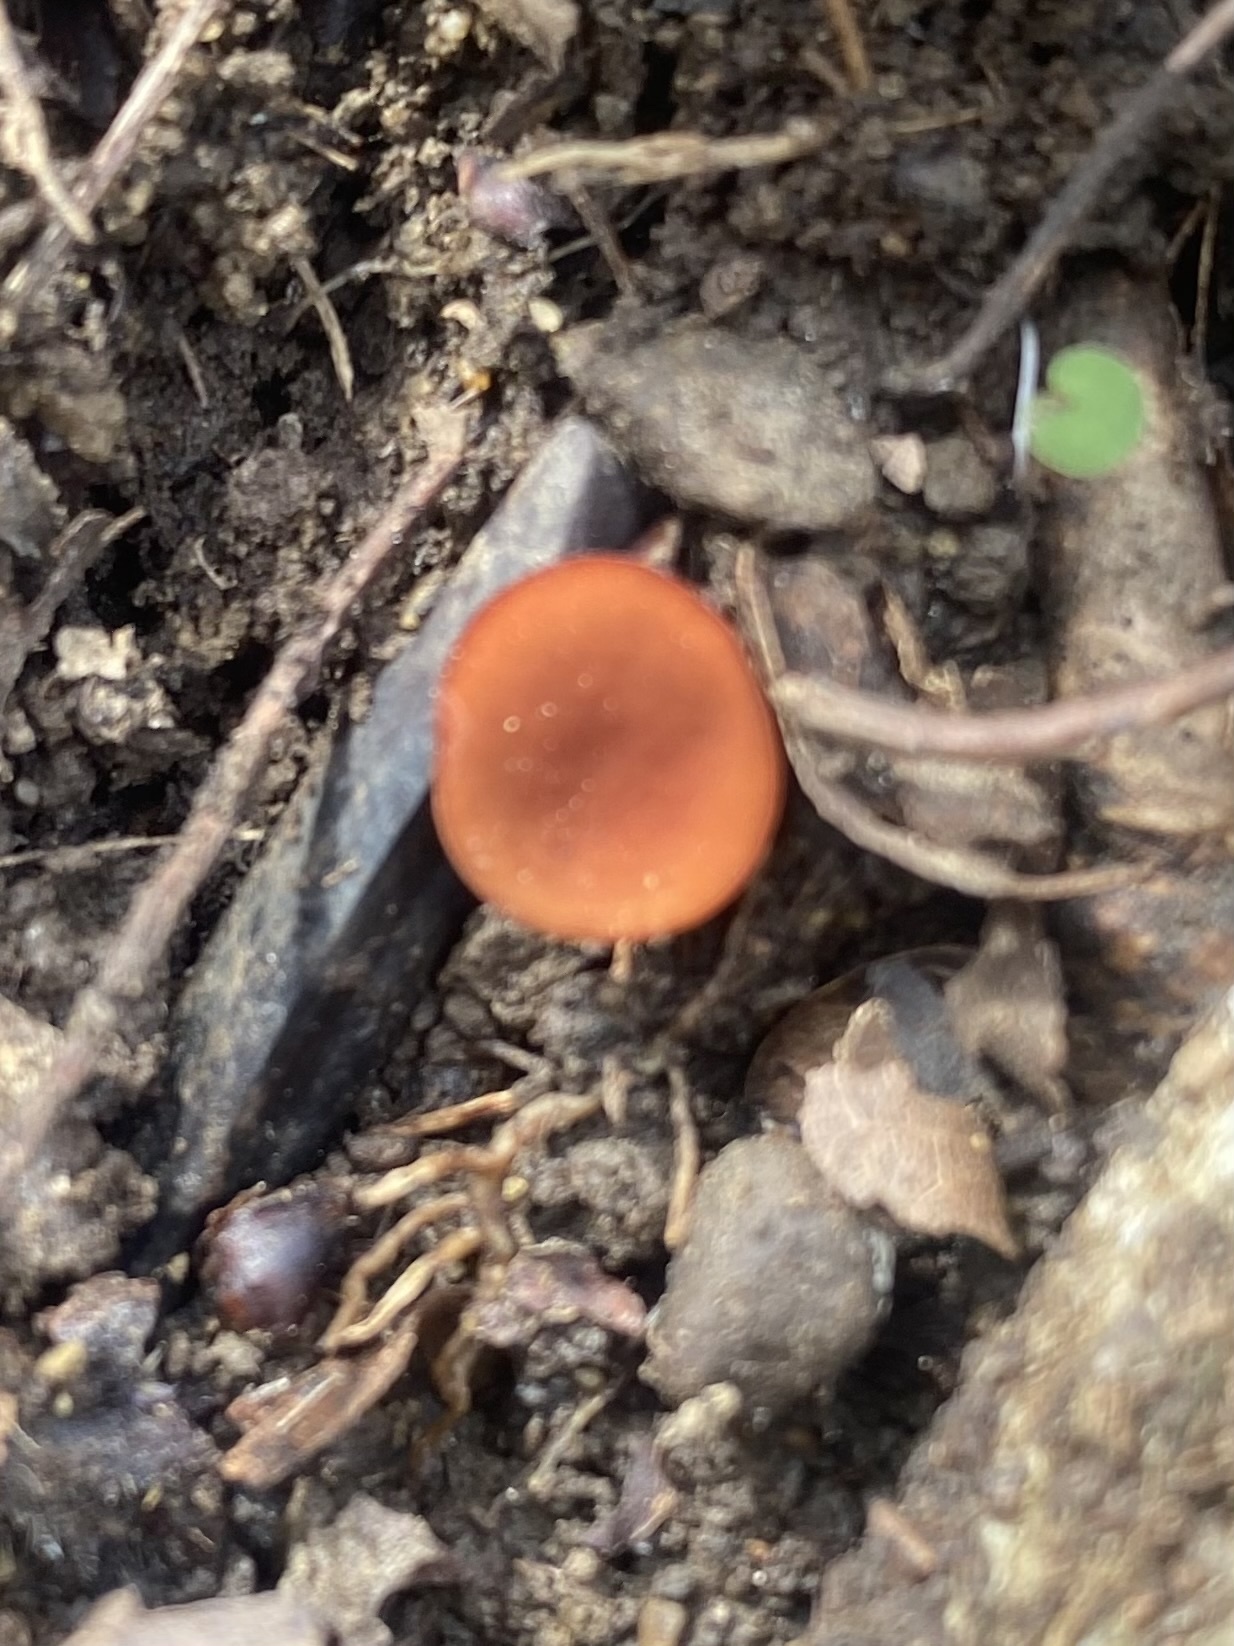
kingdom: Fungi
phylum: Ascomycota
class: Pezizomycetes
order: Pezizales
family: Pyronemataceae
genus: Scutellinia
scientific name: Scutellinia
